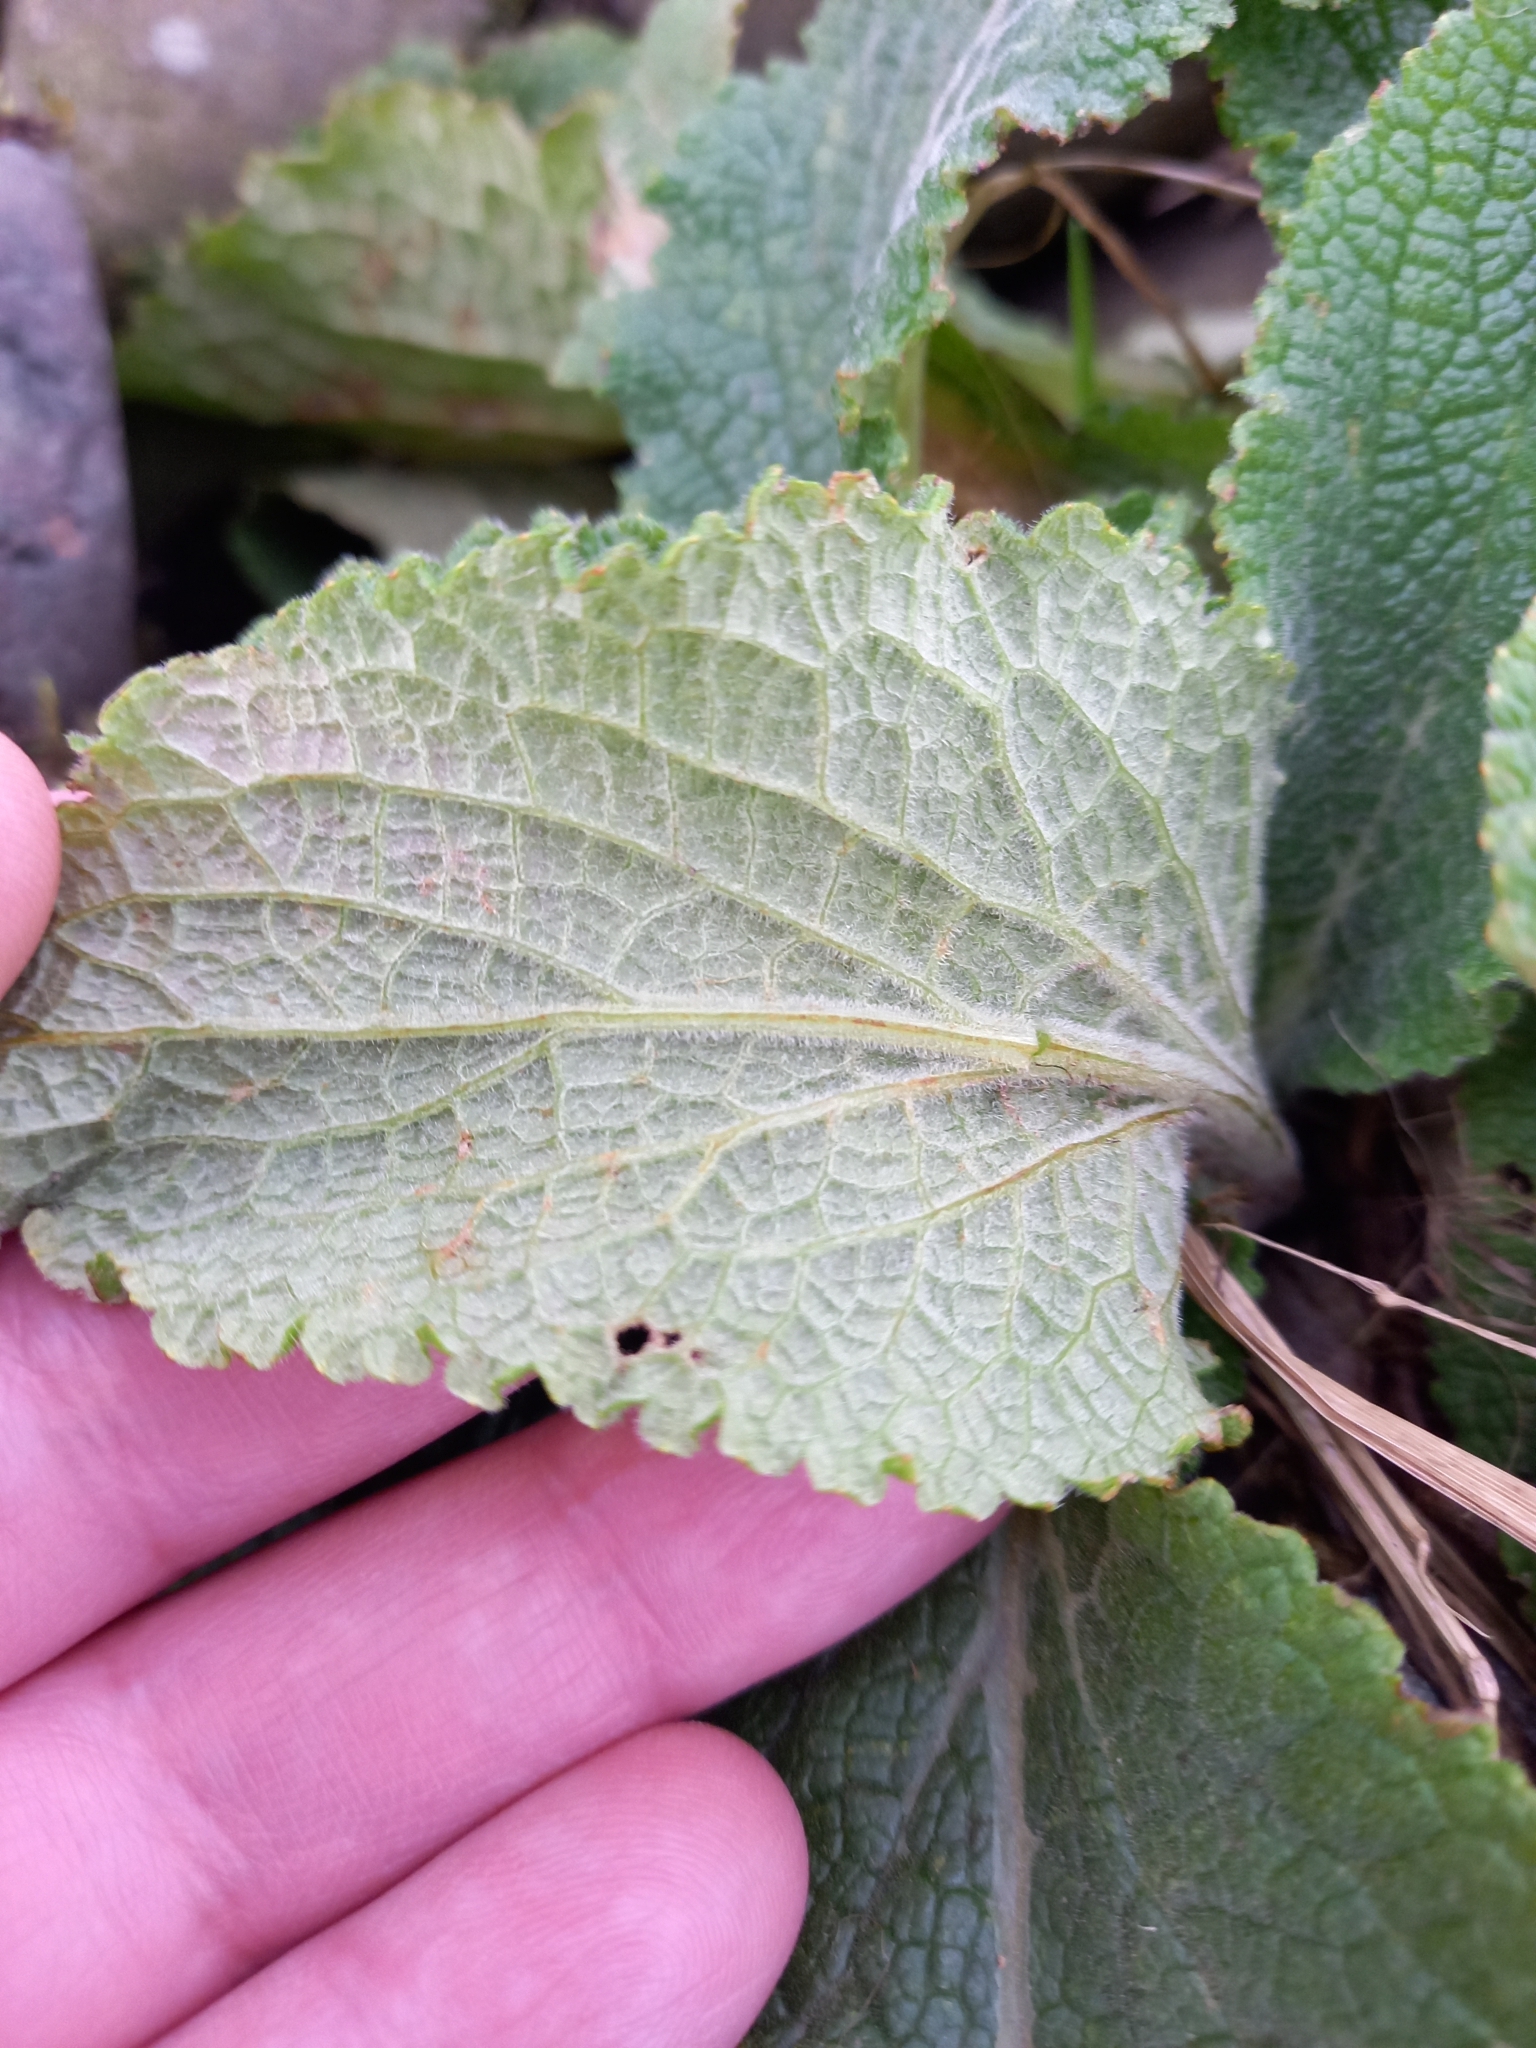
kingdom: Plantae
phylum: Tracheophyta
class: Magnoliopsida
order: Lamiales
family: Plantaginaceae
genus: Digitalis
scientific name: Digitalis purpurea
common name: Foxglove
